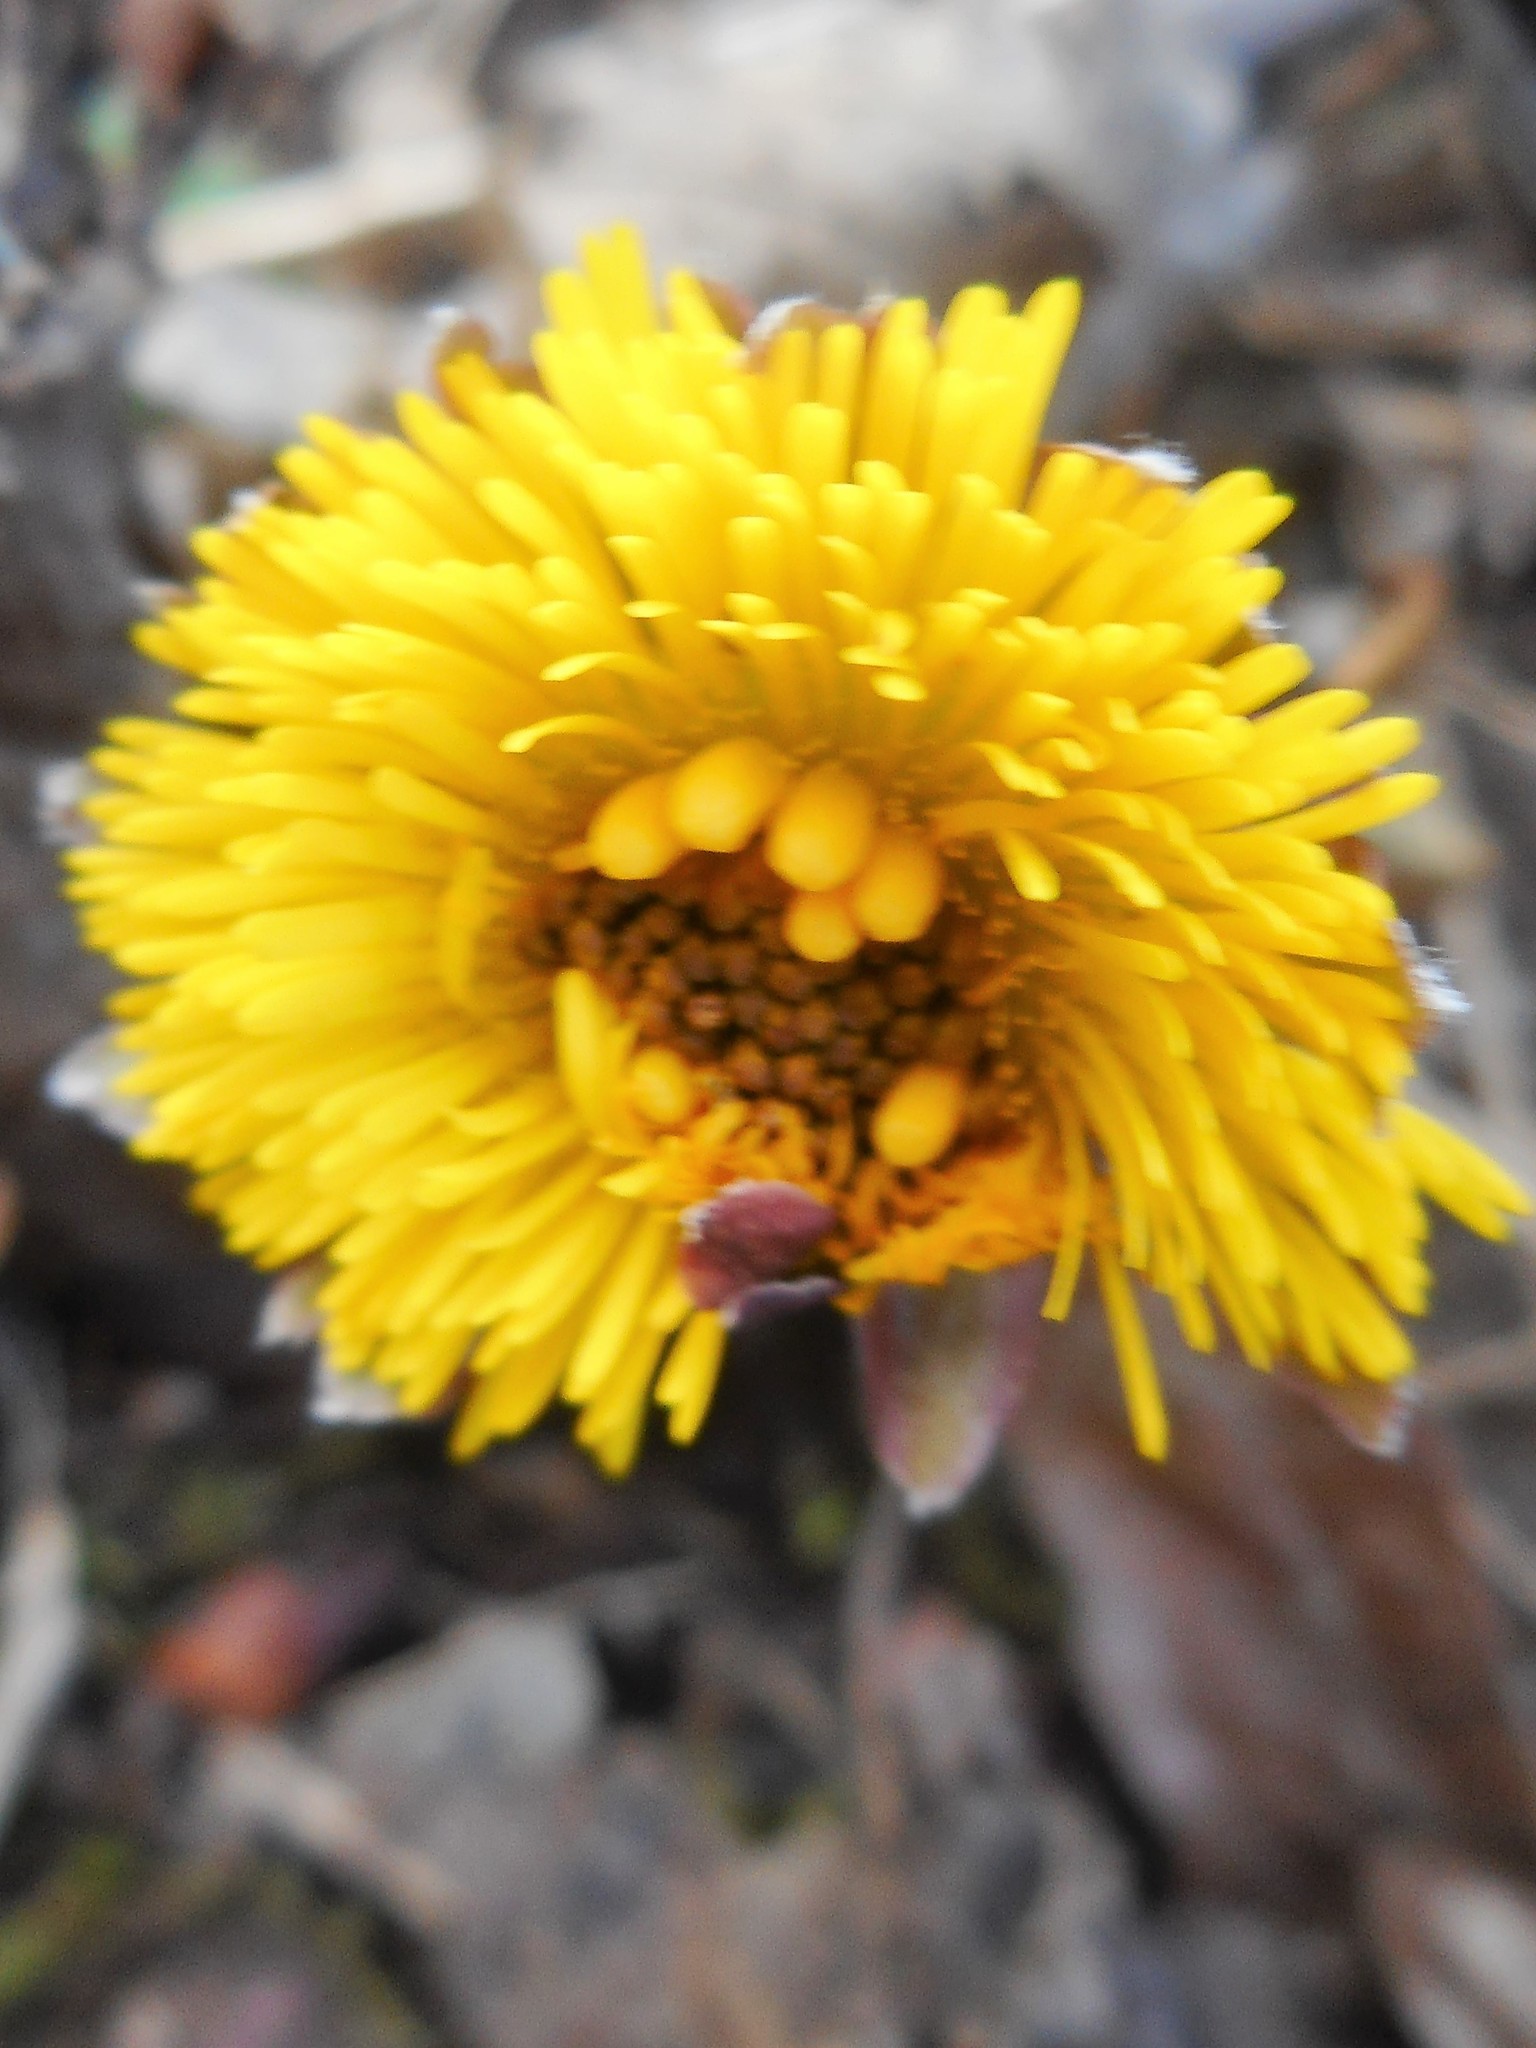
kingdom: Plantae
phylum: Tracheophyta
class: Magnoliopsida
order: Asterales
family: Asteraceae
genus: Tussilago
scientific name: Tussilago farfara
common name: Coltsfoot
